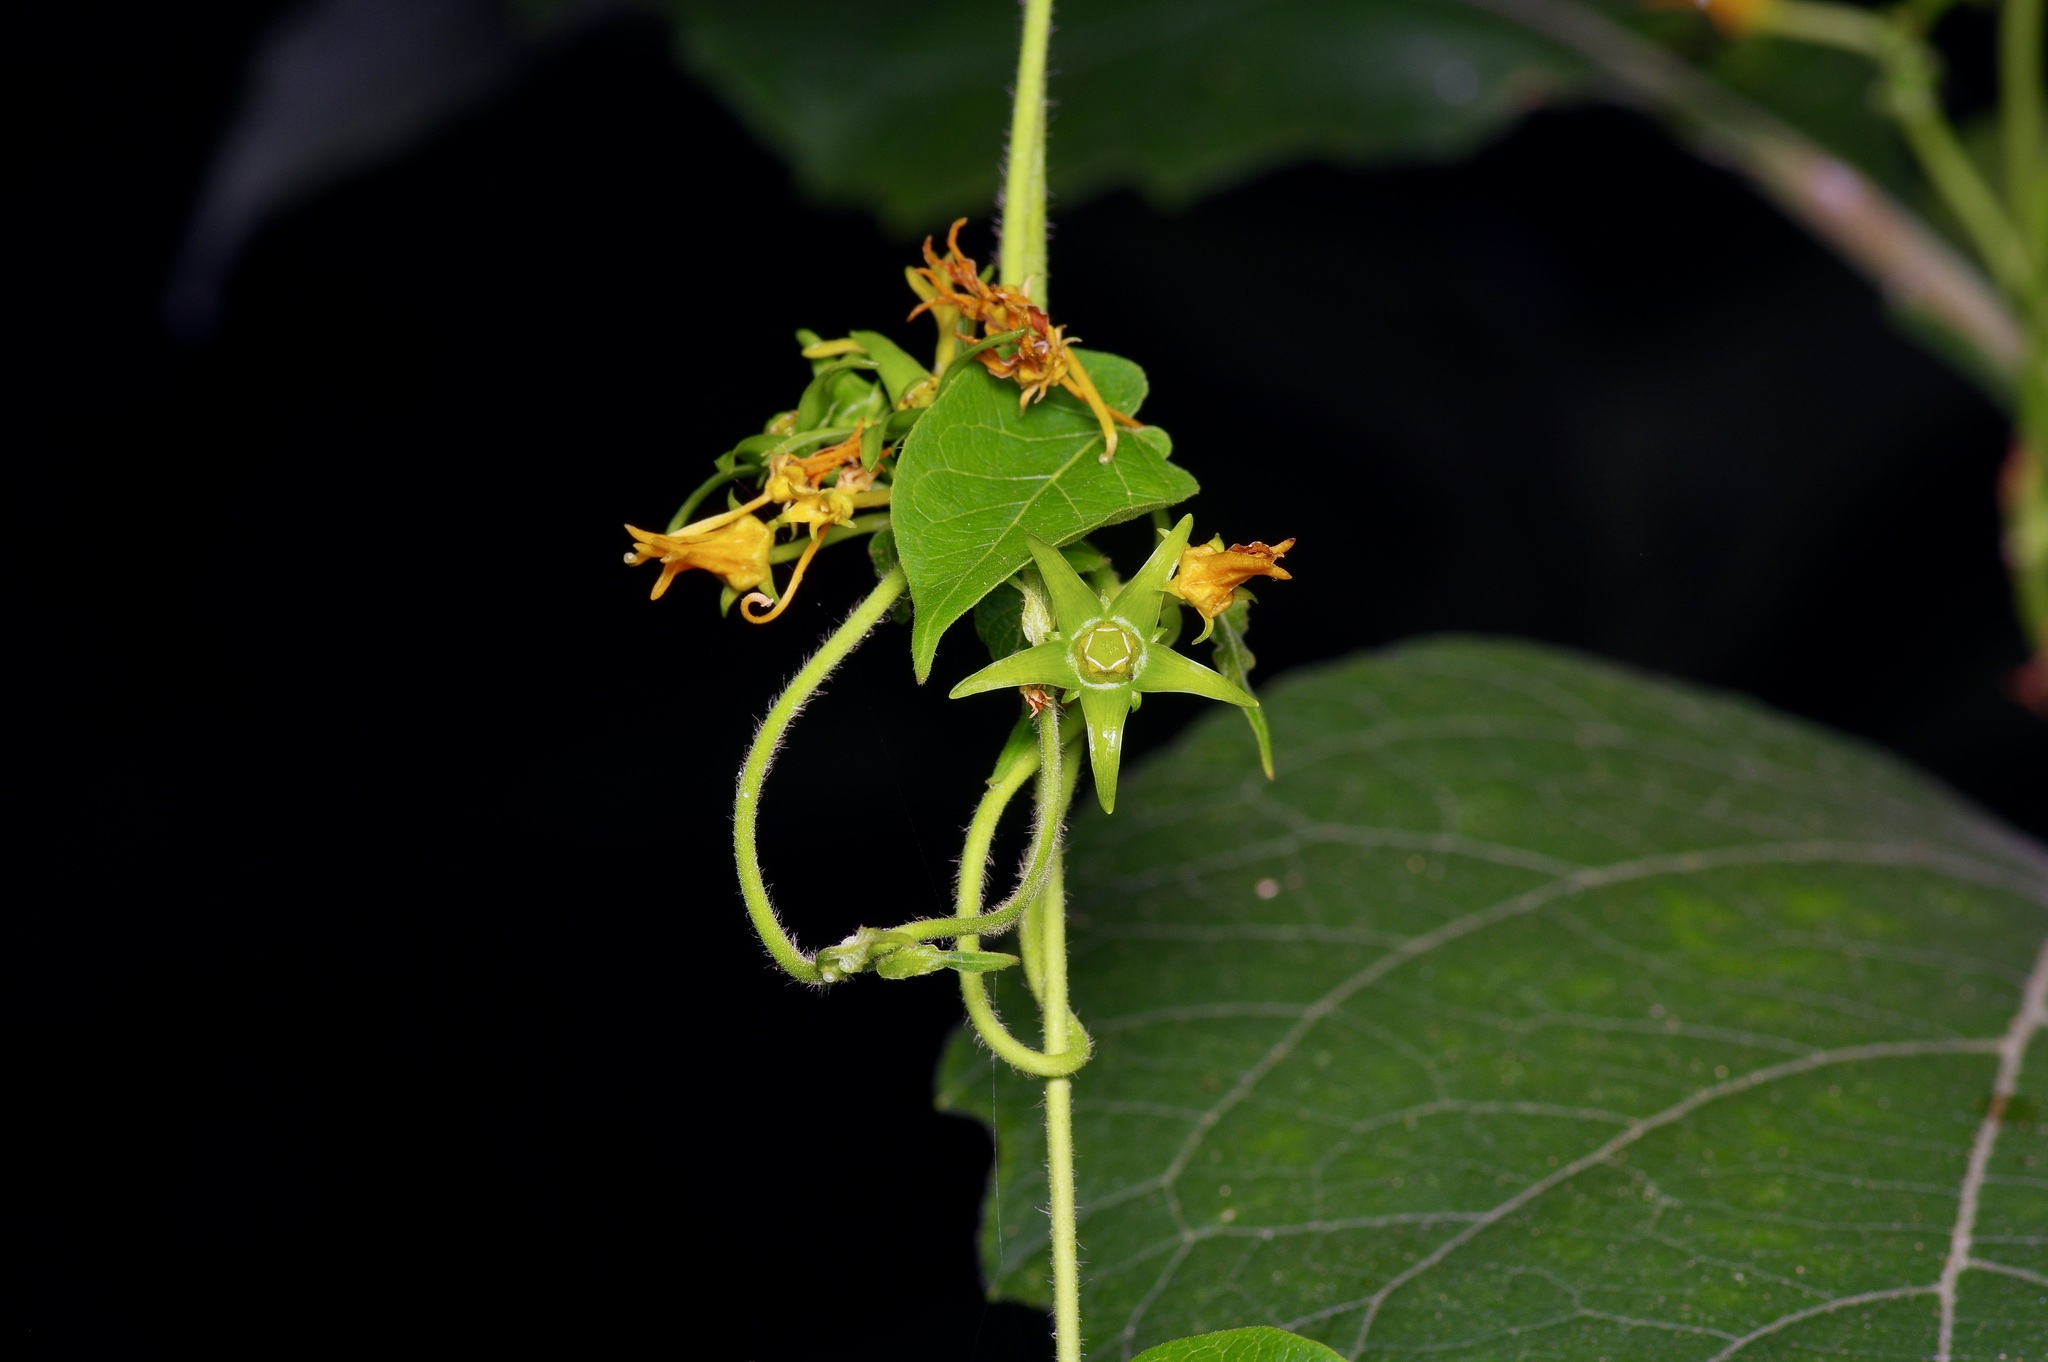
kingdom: Plantae
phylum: Tracheophyta
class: Magnoliopsida
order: Gentianales
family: Apocynaceae
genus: Gonolobus
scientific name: Gonolobus suberosus
